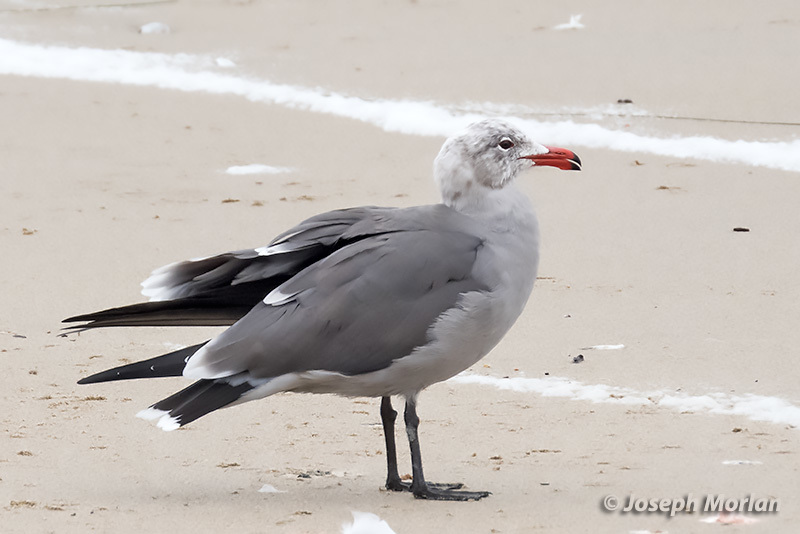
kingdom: Animalia
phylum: Chordata
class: Aves
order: Charadriiformes
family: Laridae
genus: Larus
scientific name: Larus heermanni
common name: Heermann's gull
